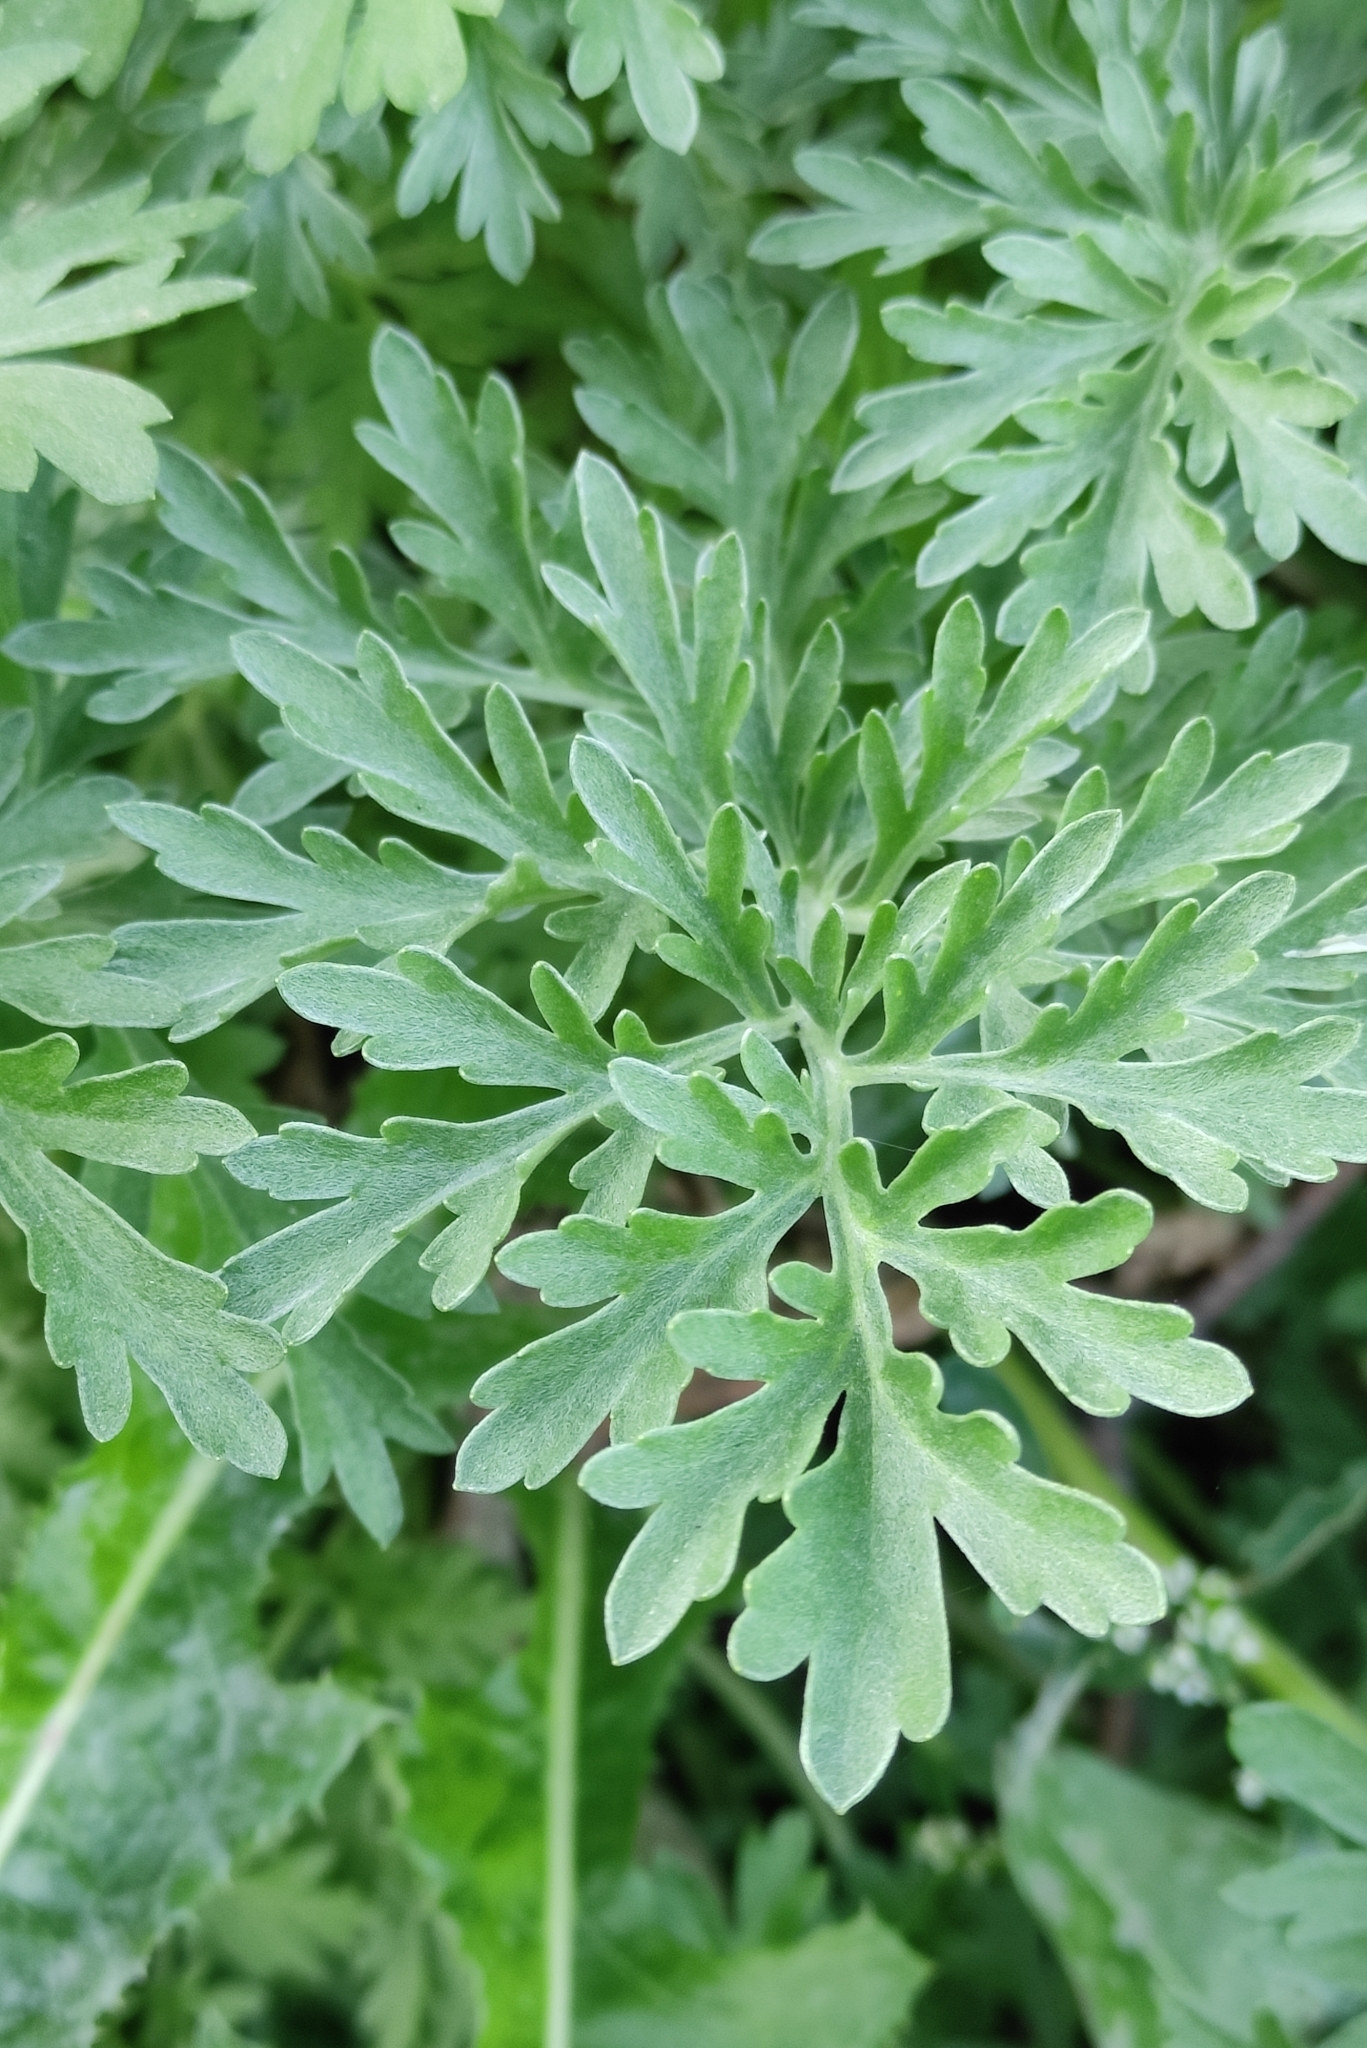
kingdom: Plantae
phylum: Tracheophyta
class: Magnoliopsida
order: Asterales
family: Asteraceae
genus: Artemisia
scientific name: Artemisia absinthium
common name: Wormwood
